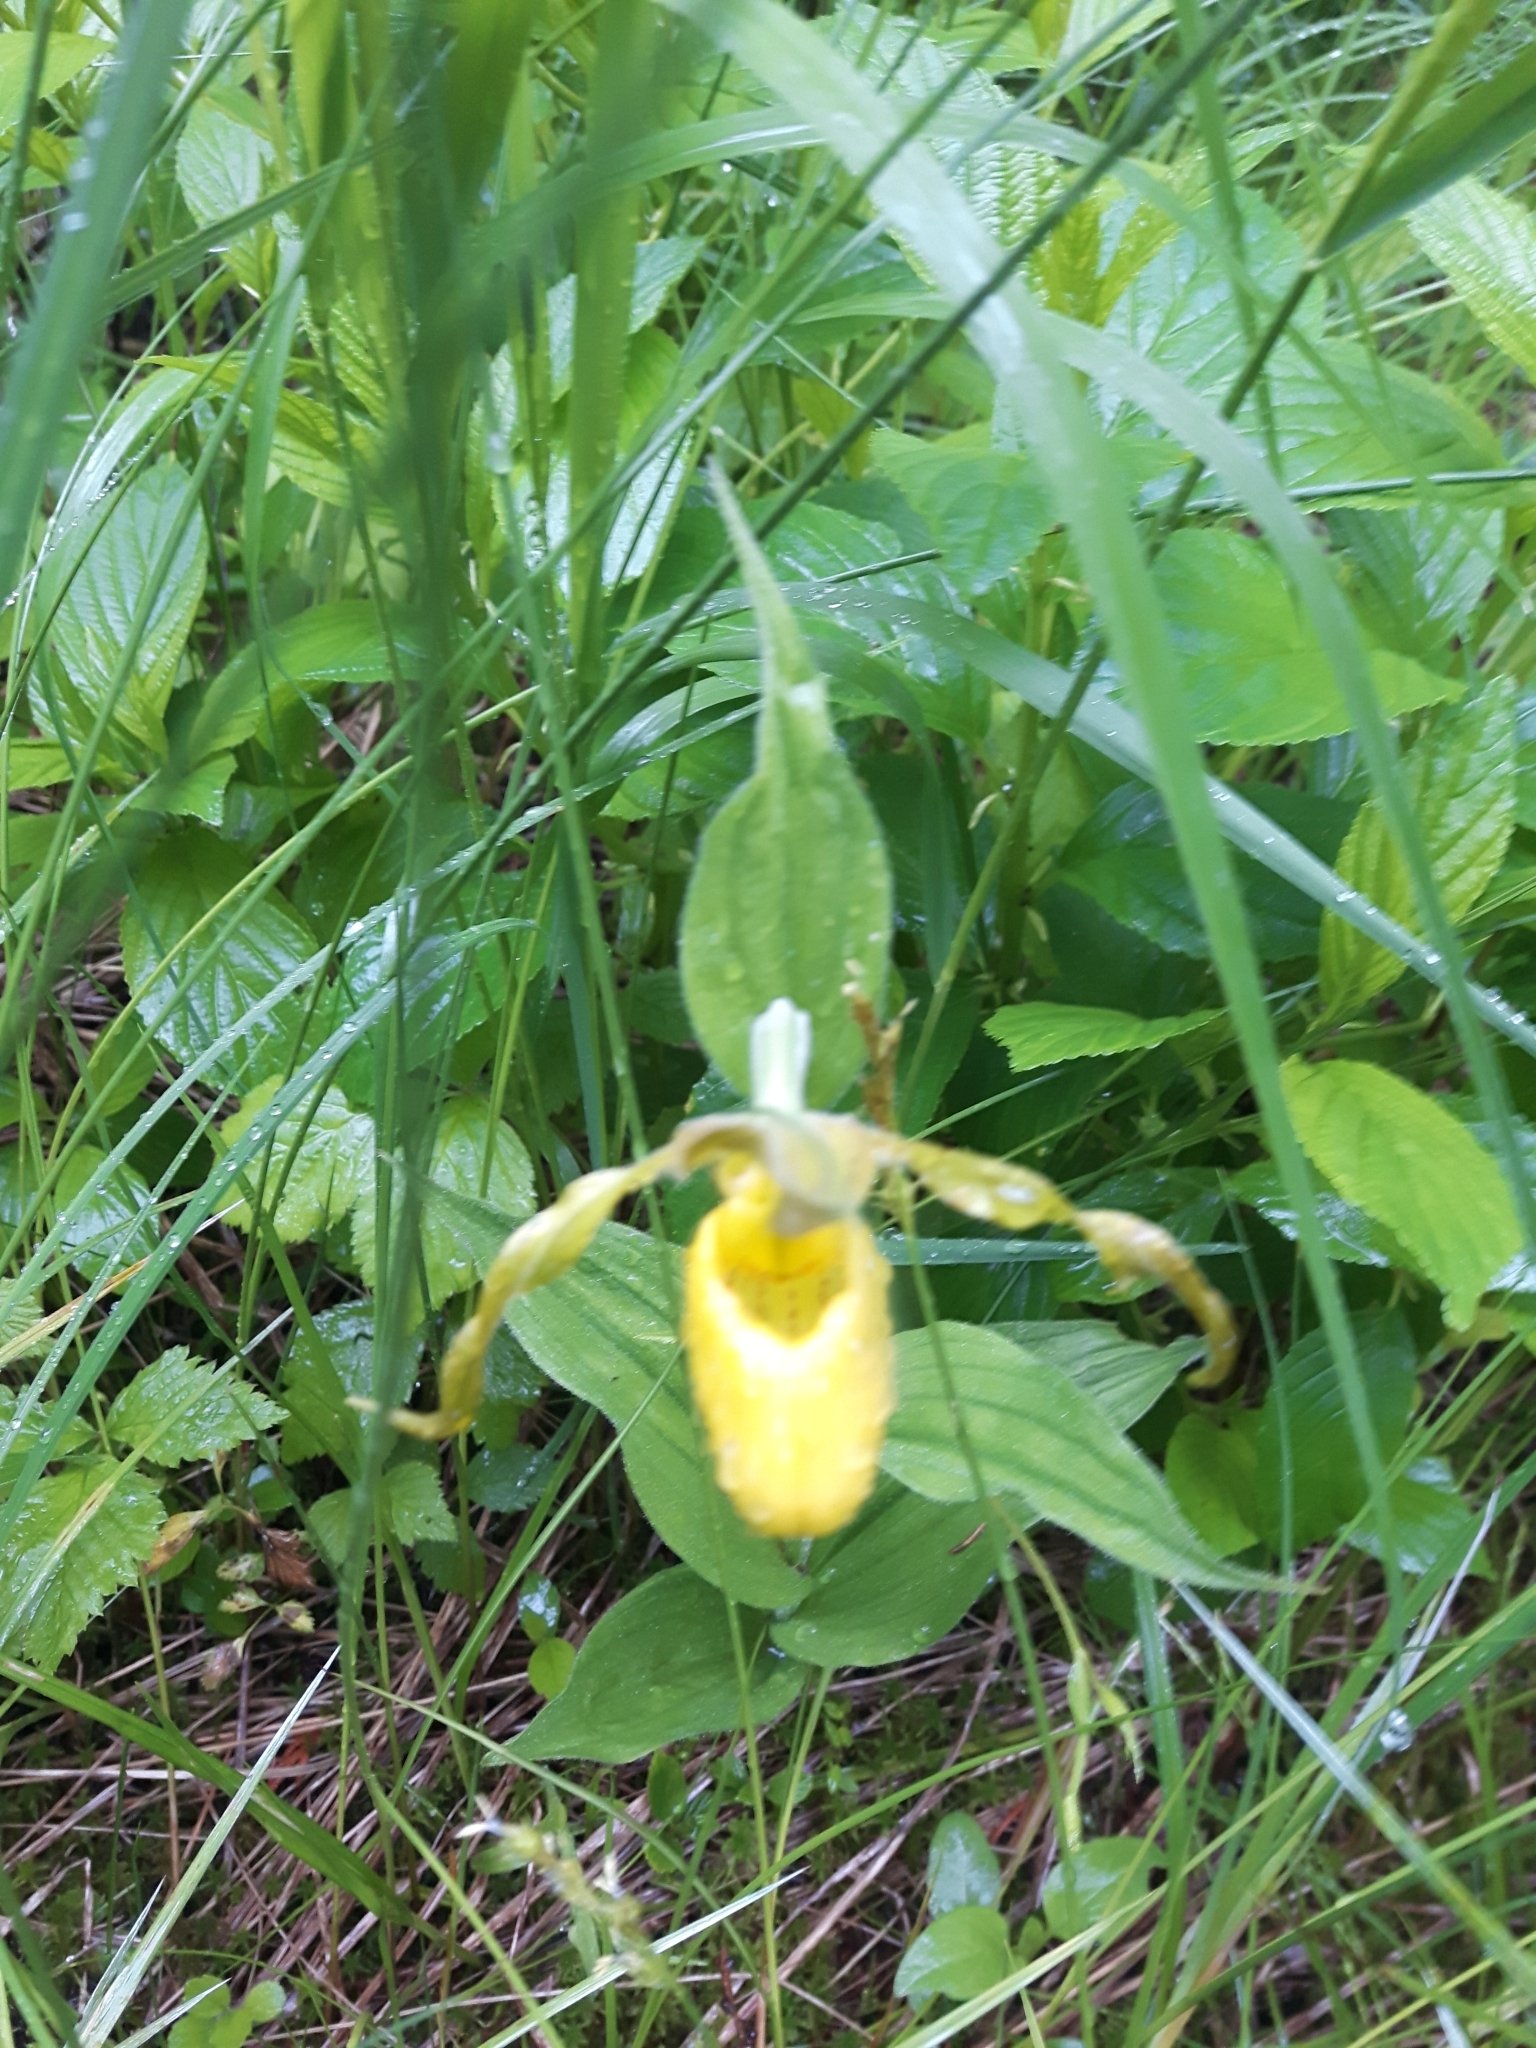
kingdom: Plantae
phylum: Tracheophyta
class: Liliopsida
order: Asparagales
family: Orchidaceae
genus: Cypripedium
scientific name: Cypripedium parviflorum
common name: American yellow lady's-slipper
